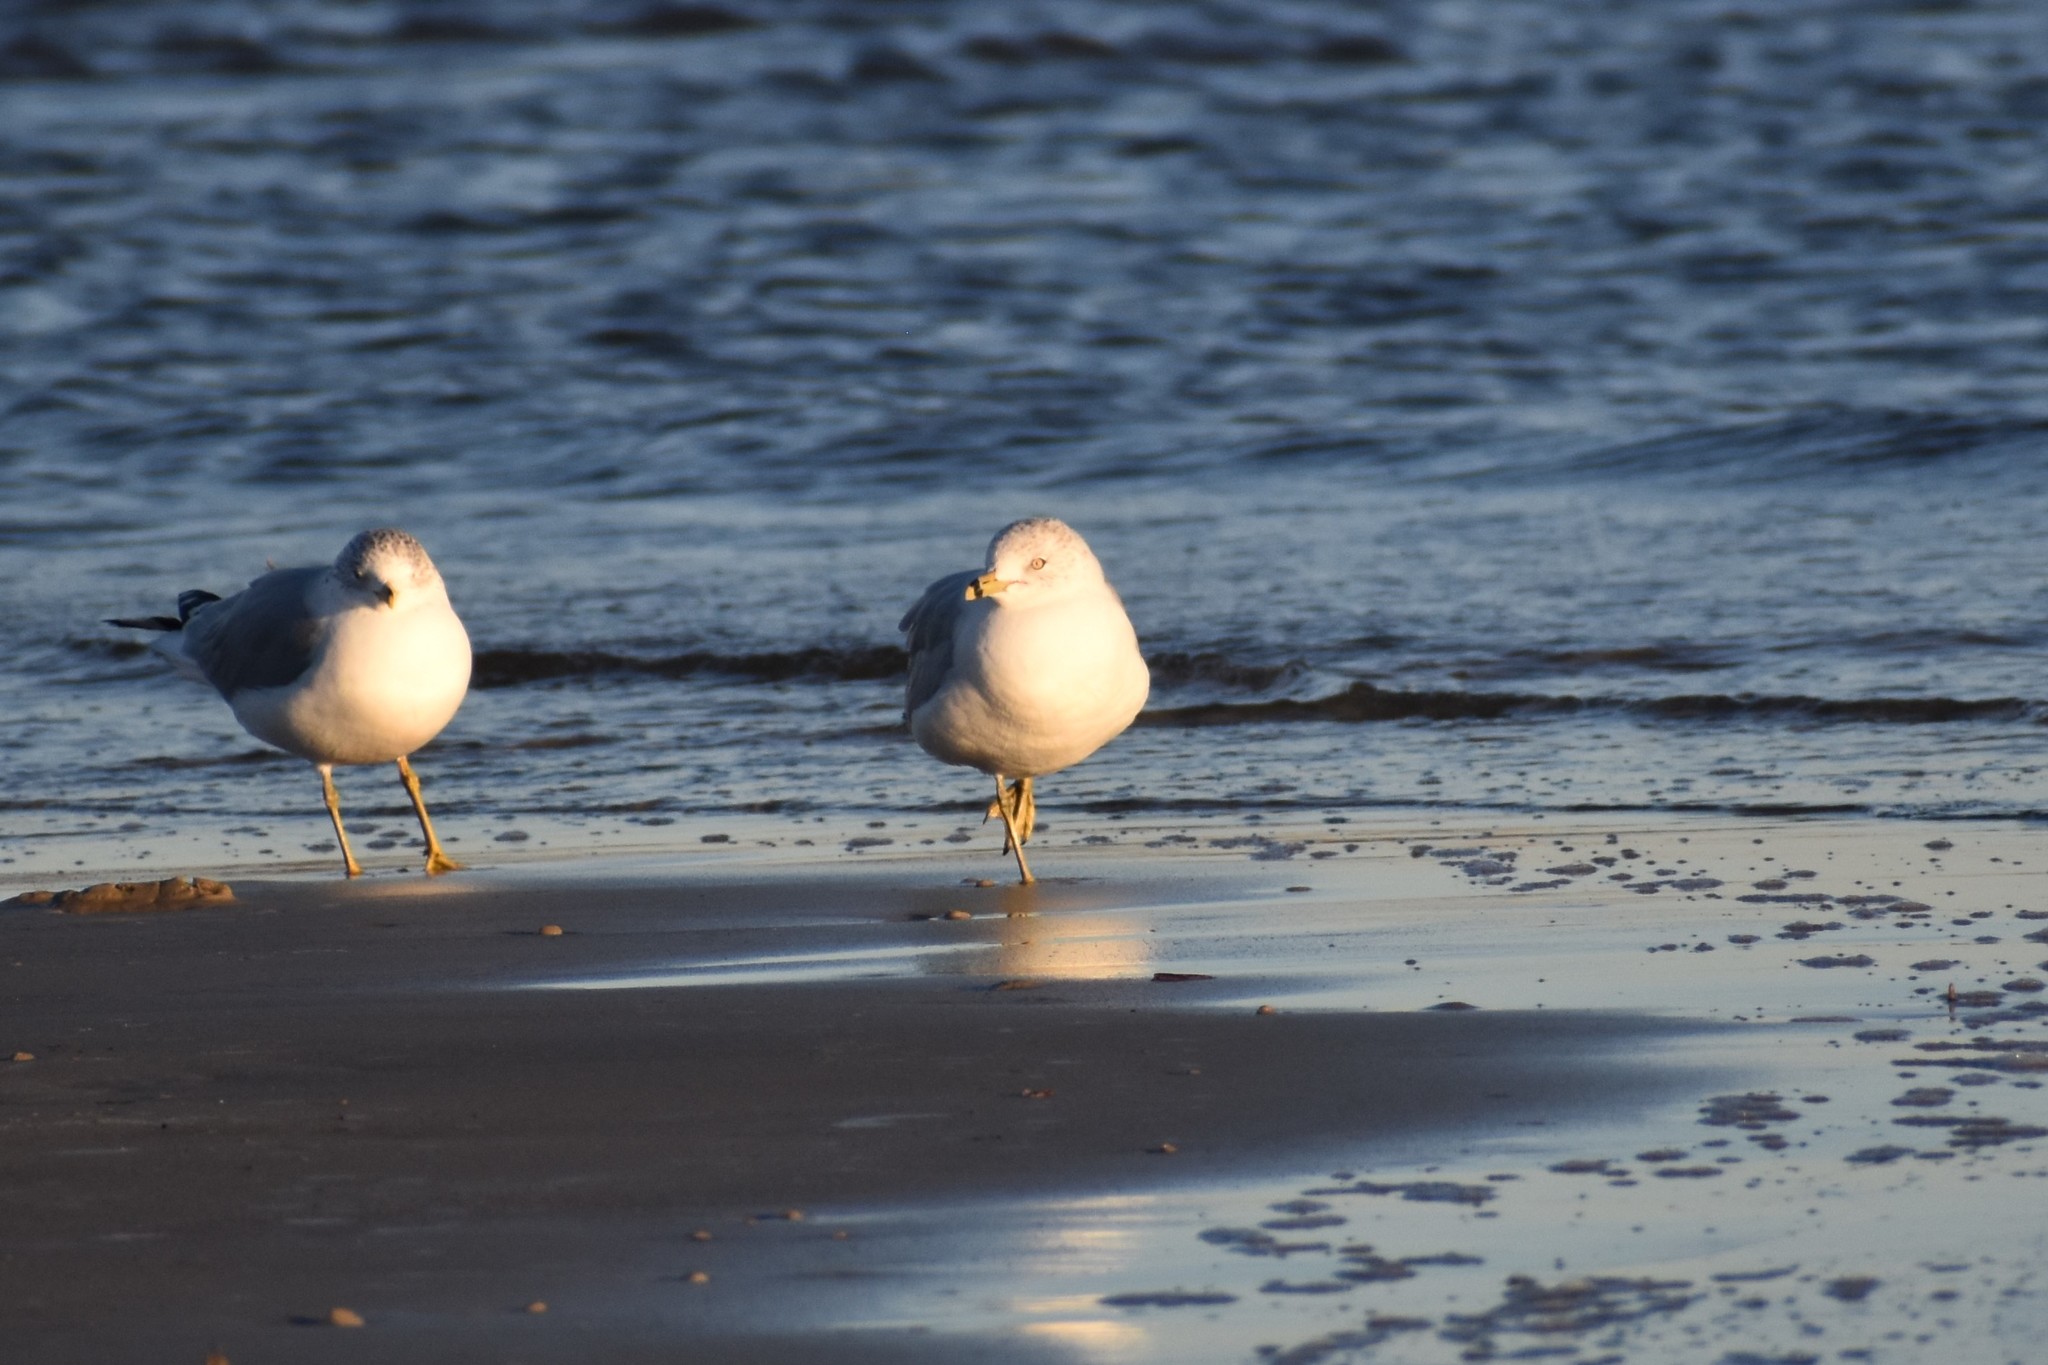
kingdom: Animalia
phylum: Chordata
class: Aves
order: Charadriiformes
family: Laridae
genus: Larus
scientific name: Larus delawarensis
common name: Ring-billed gull
